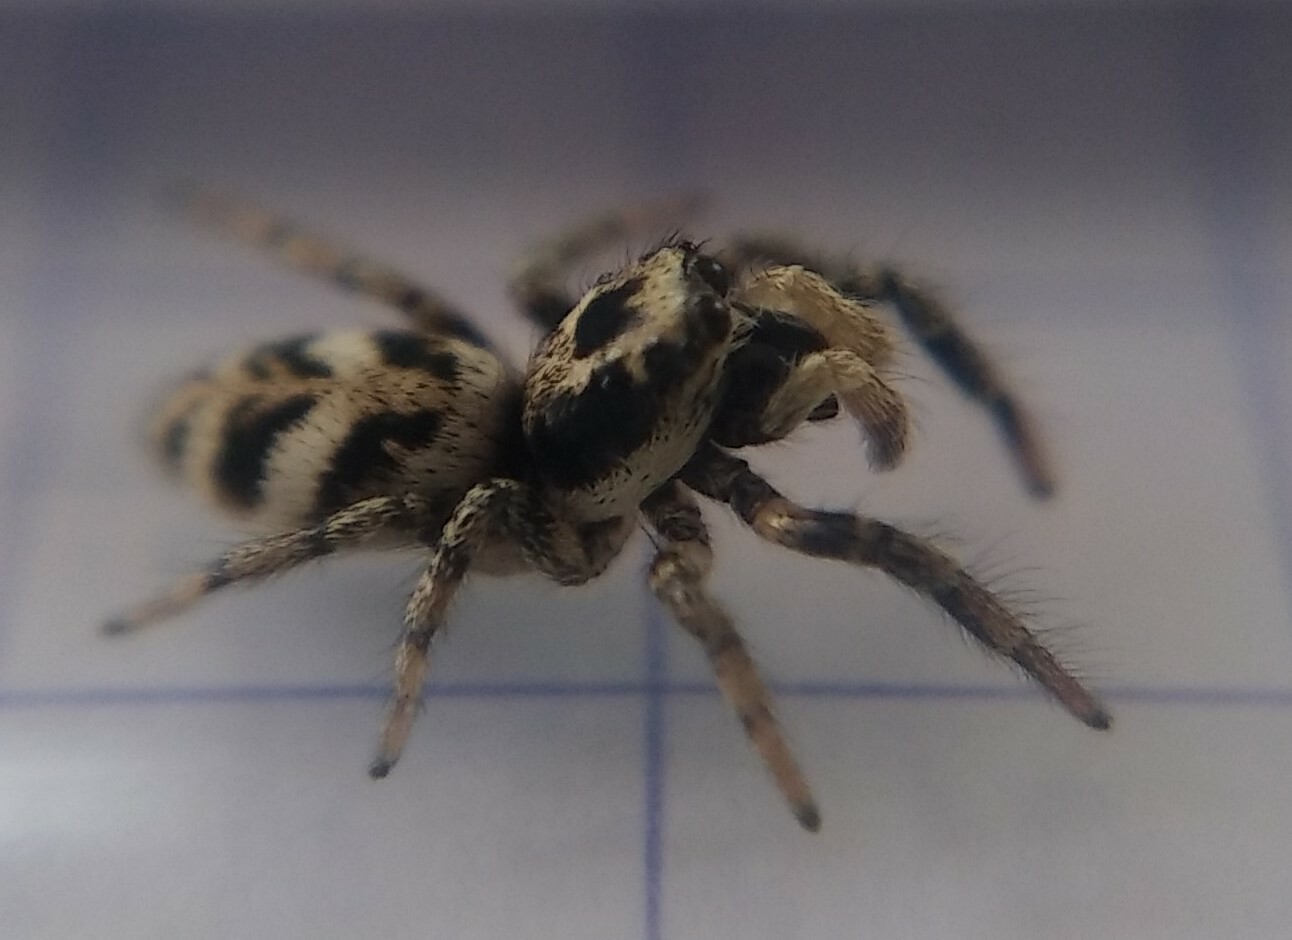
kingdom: Animalia
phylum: Arthropoda
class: Arachnida
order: Araneae
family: Salticidae
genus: Salticus
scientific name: Salticus scenicus
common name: Zebra jumper
